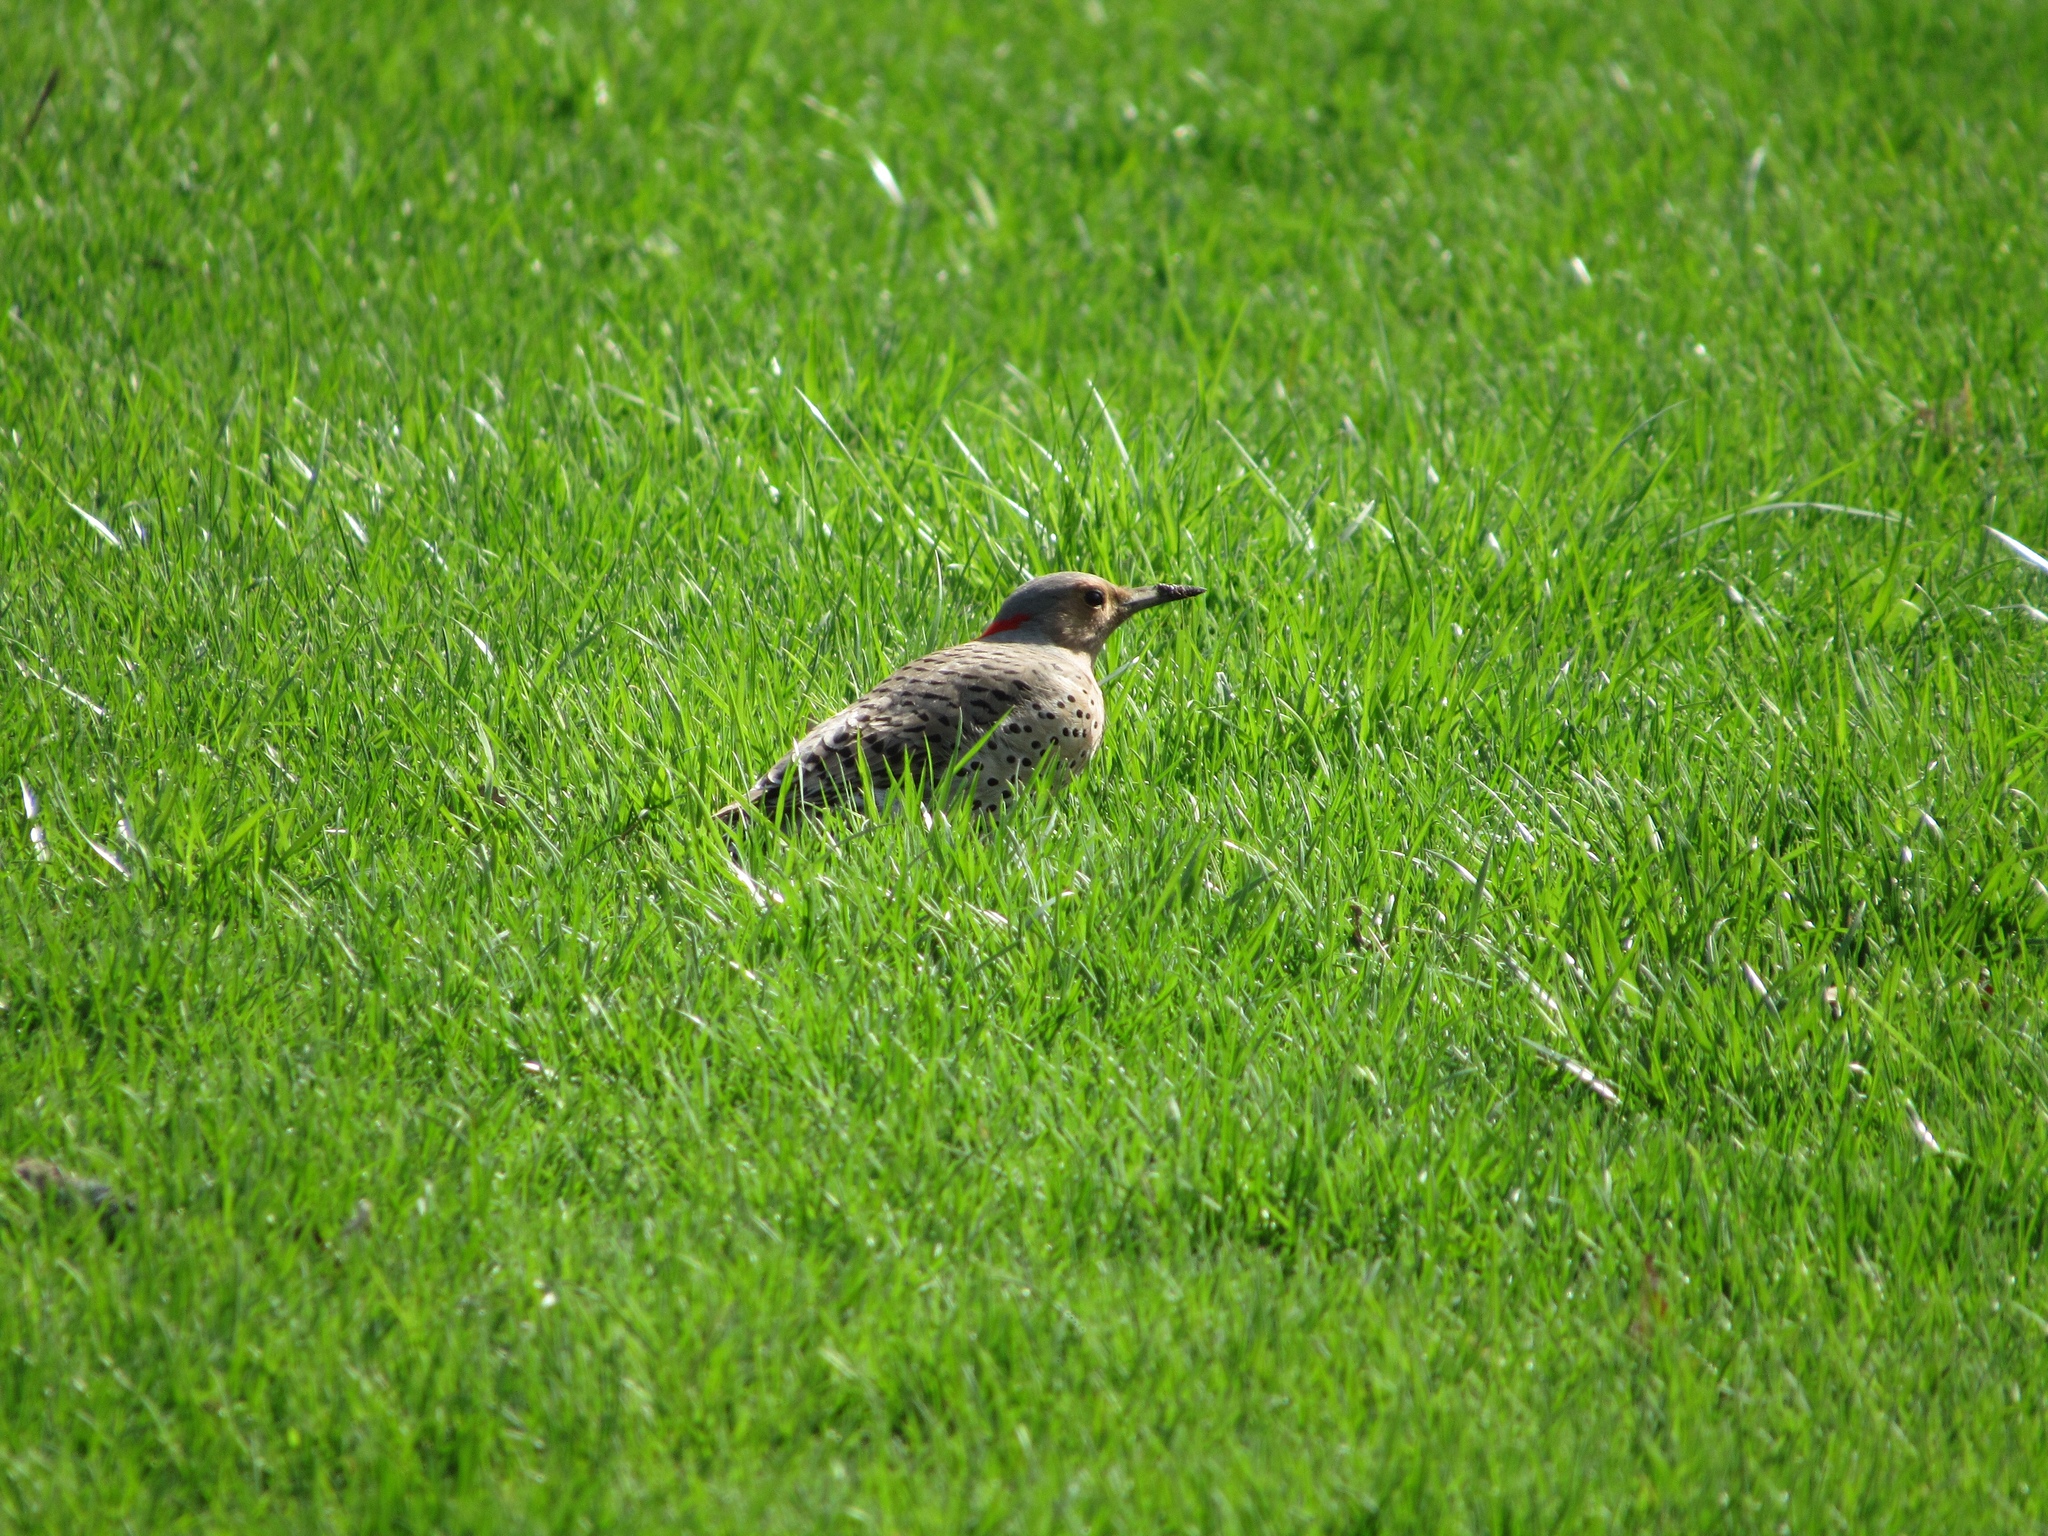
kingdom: Animalia
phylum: Chordata
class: Aves
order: Piciformes
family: Picidae
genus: Colaptes
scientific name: Colaptes auratus
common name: Northern flicker
